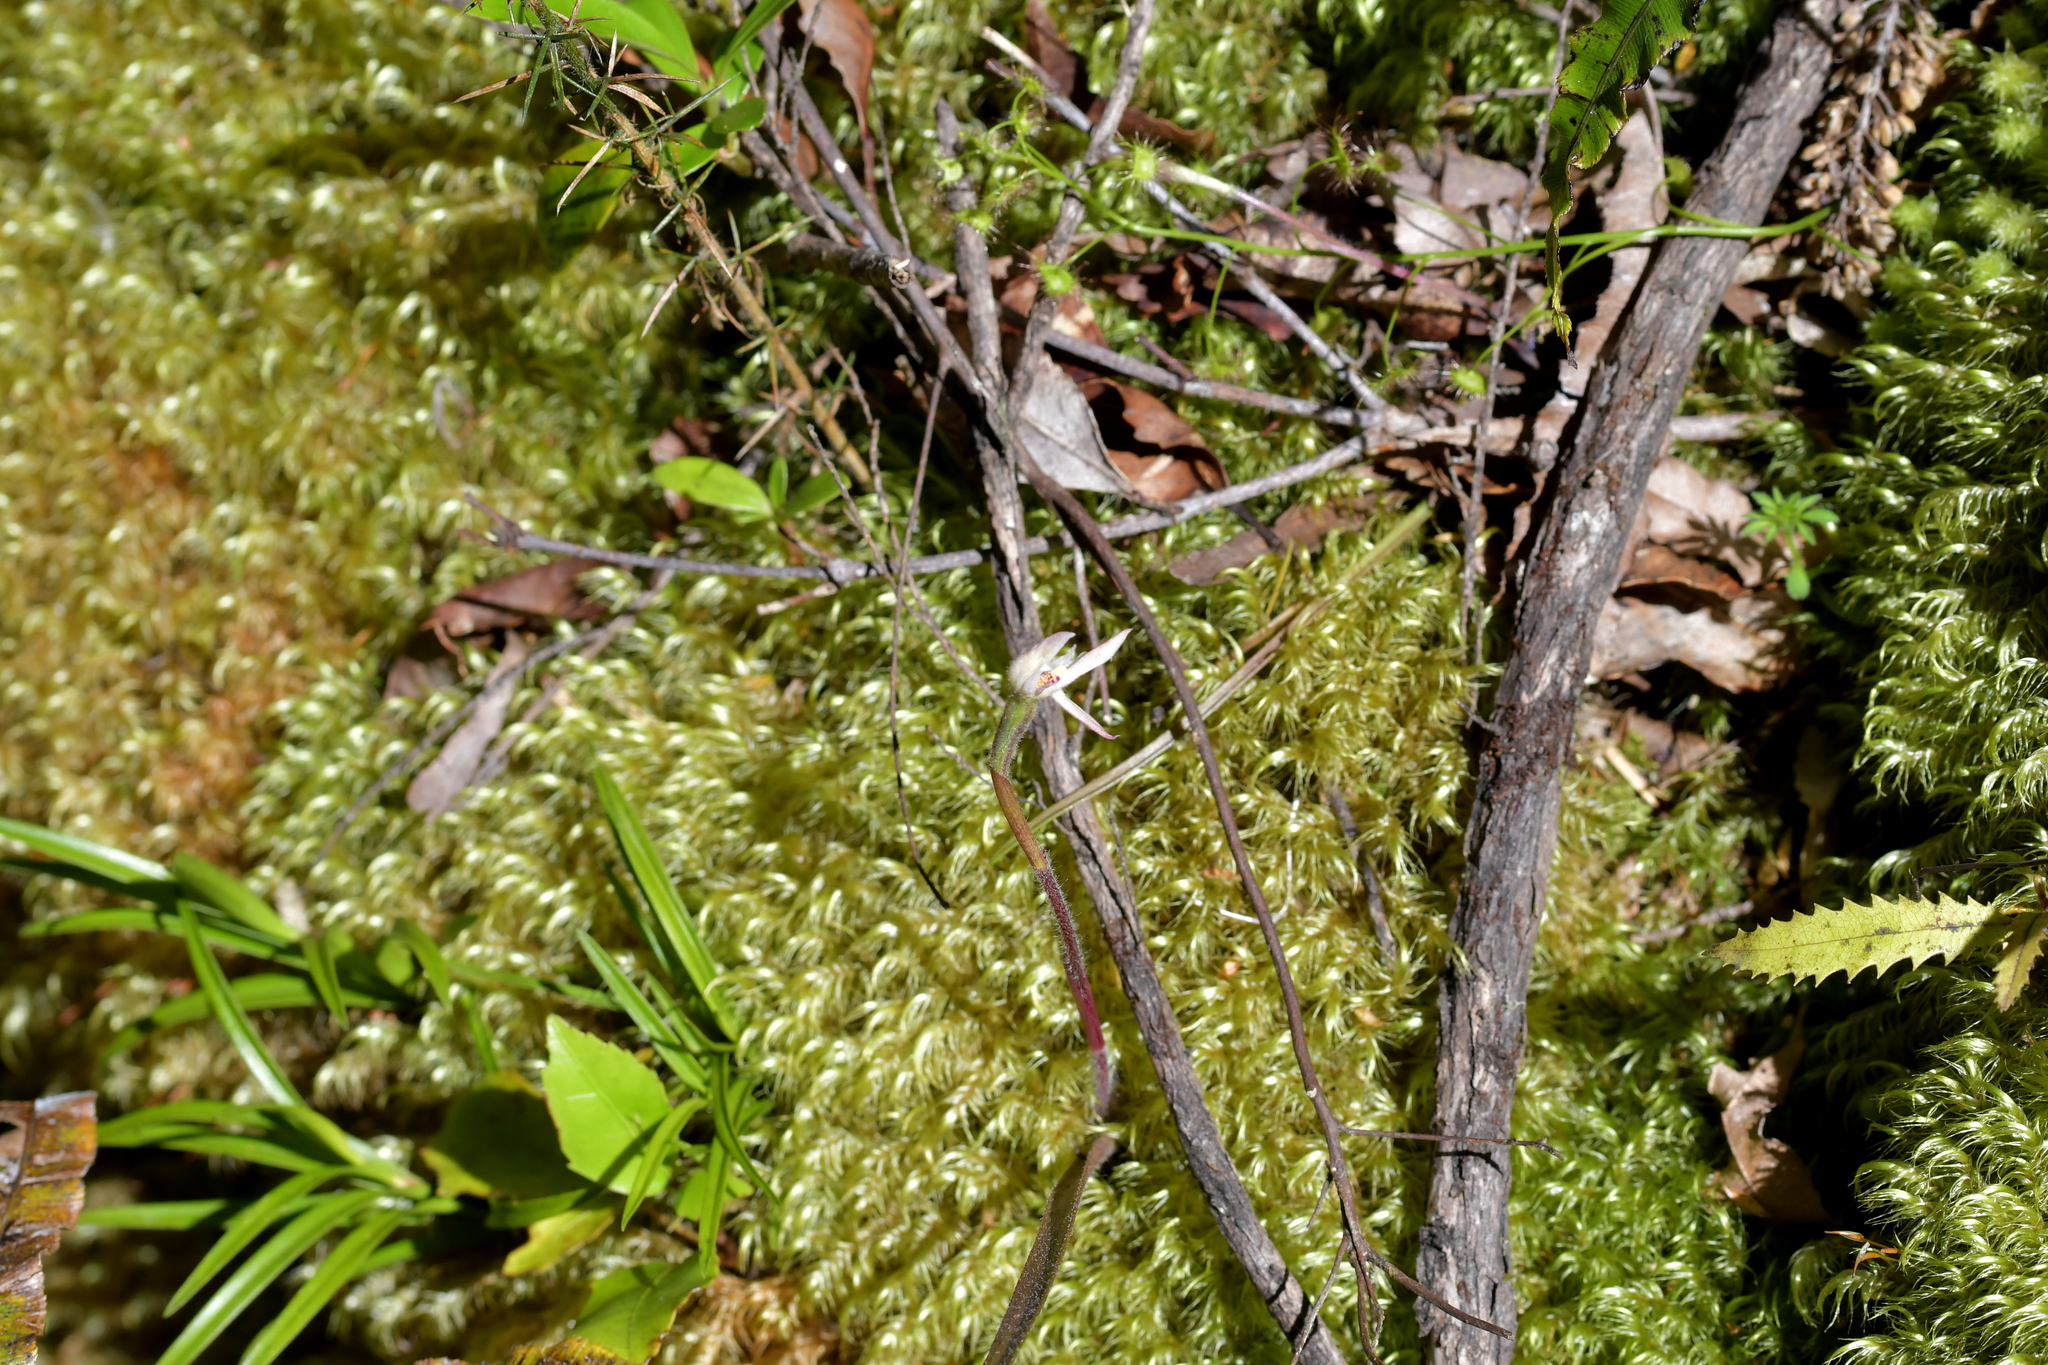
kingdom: Plantae
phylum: Tracheophyta
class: Liliopsida
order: Asparagales
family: Orchidaceae
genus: Caladenia
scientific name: Caladenia lyallii
